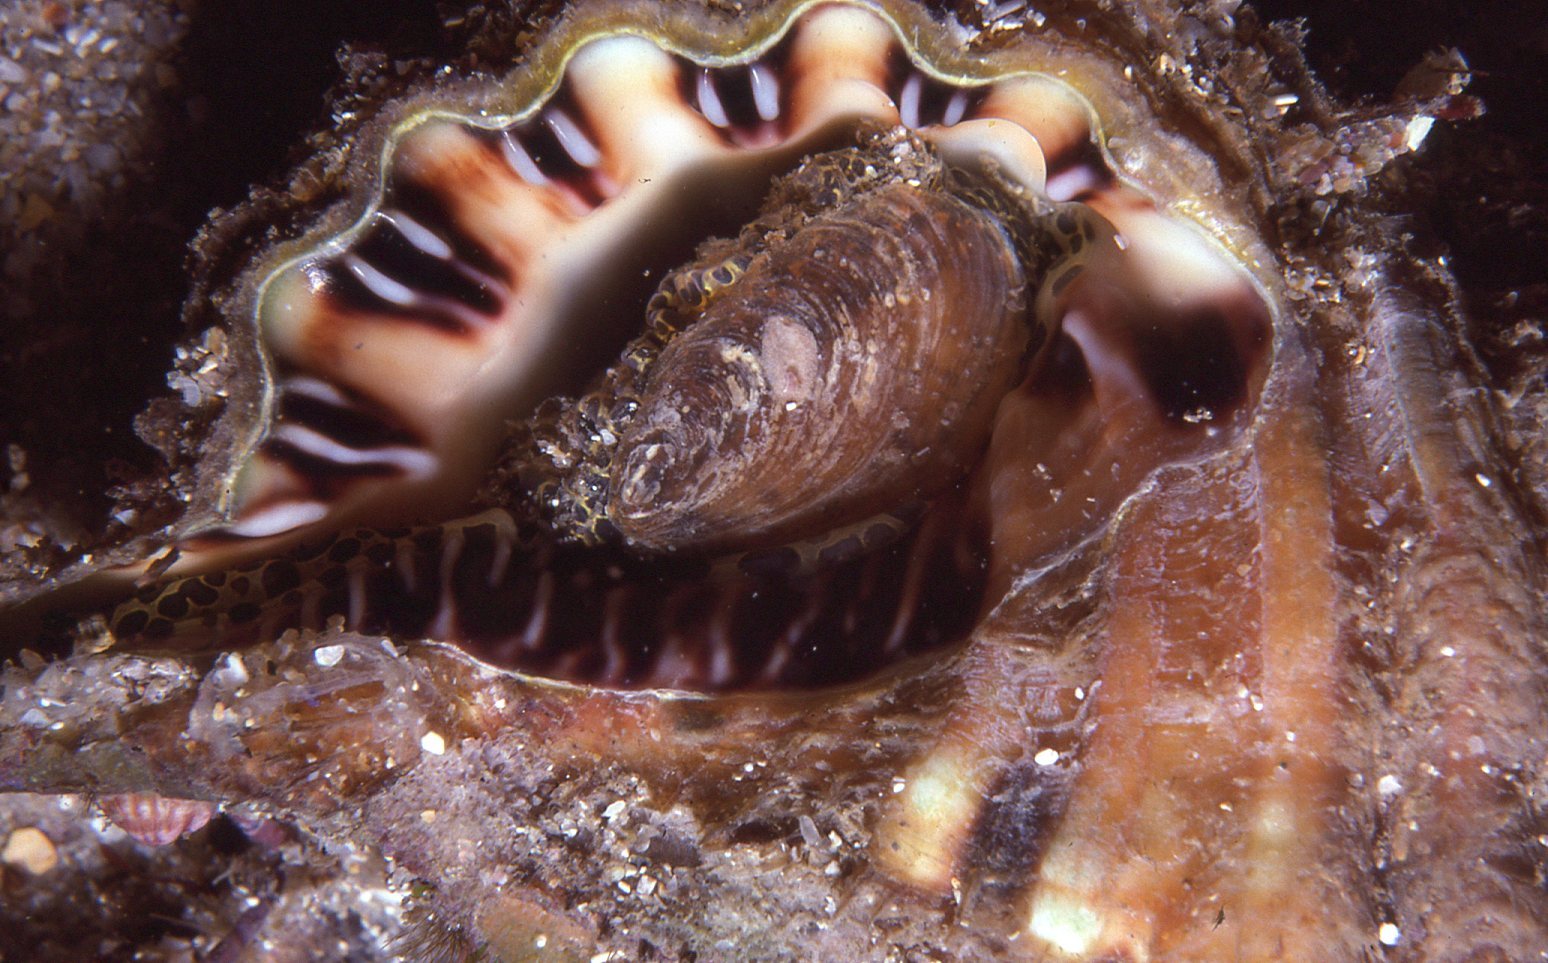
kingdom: Animalia
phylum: Mollusca
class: Gastropoda
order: Littorinimorpha
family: Cymatiidae
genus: Monoplex
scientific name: Monoplex parthenopeus
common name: Giant triton
